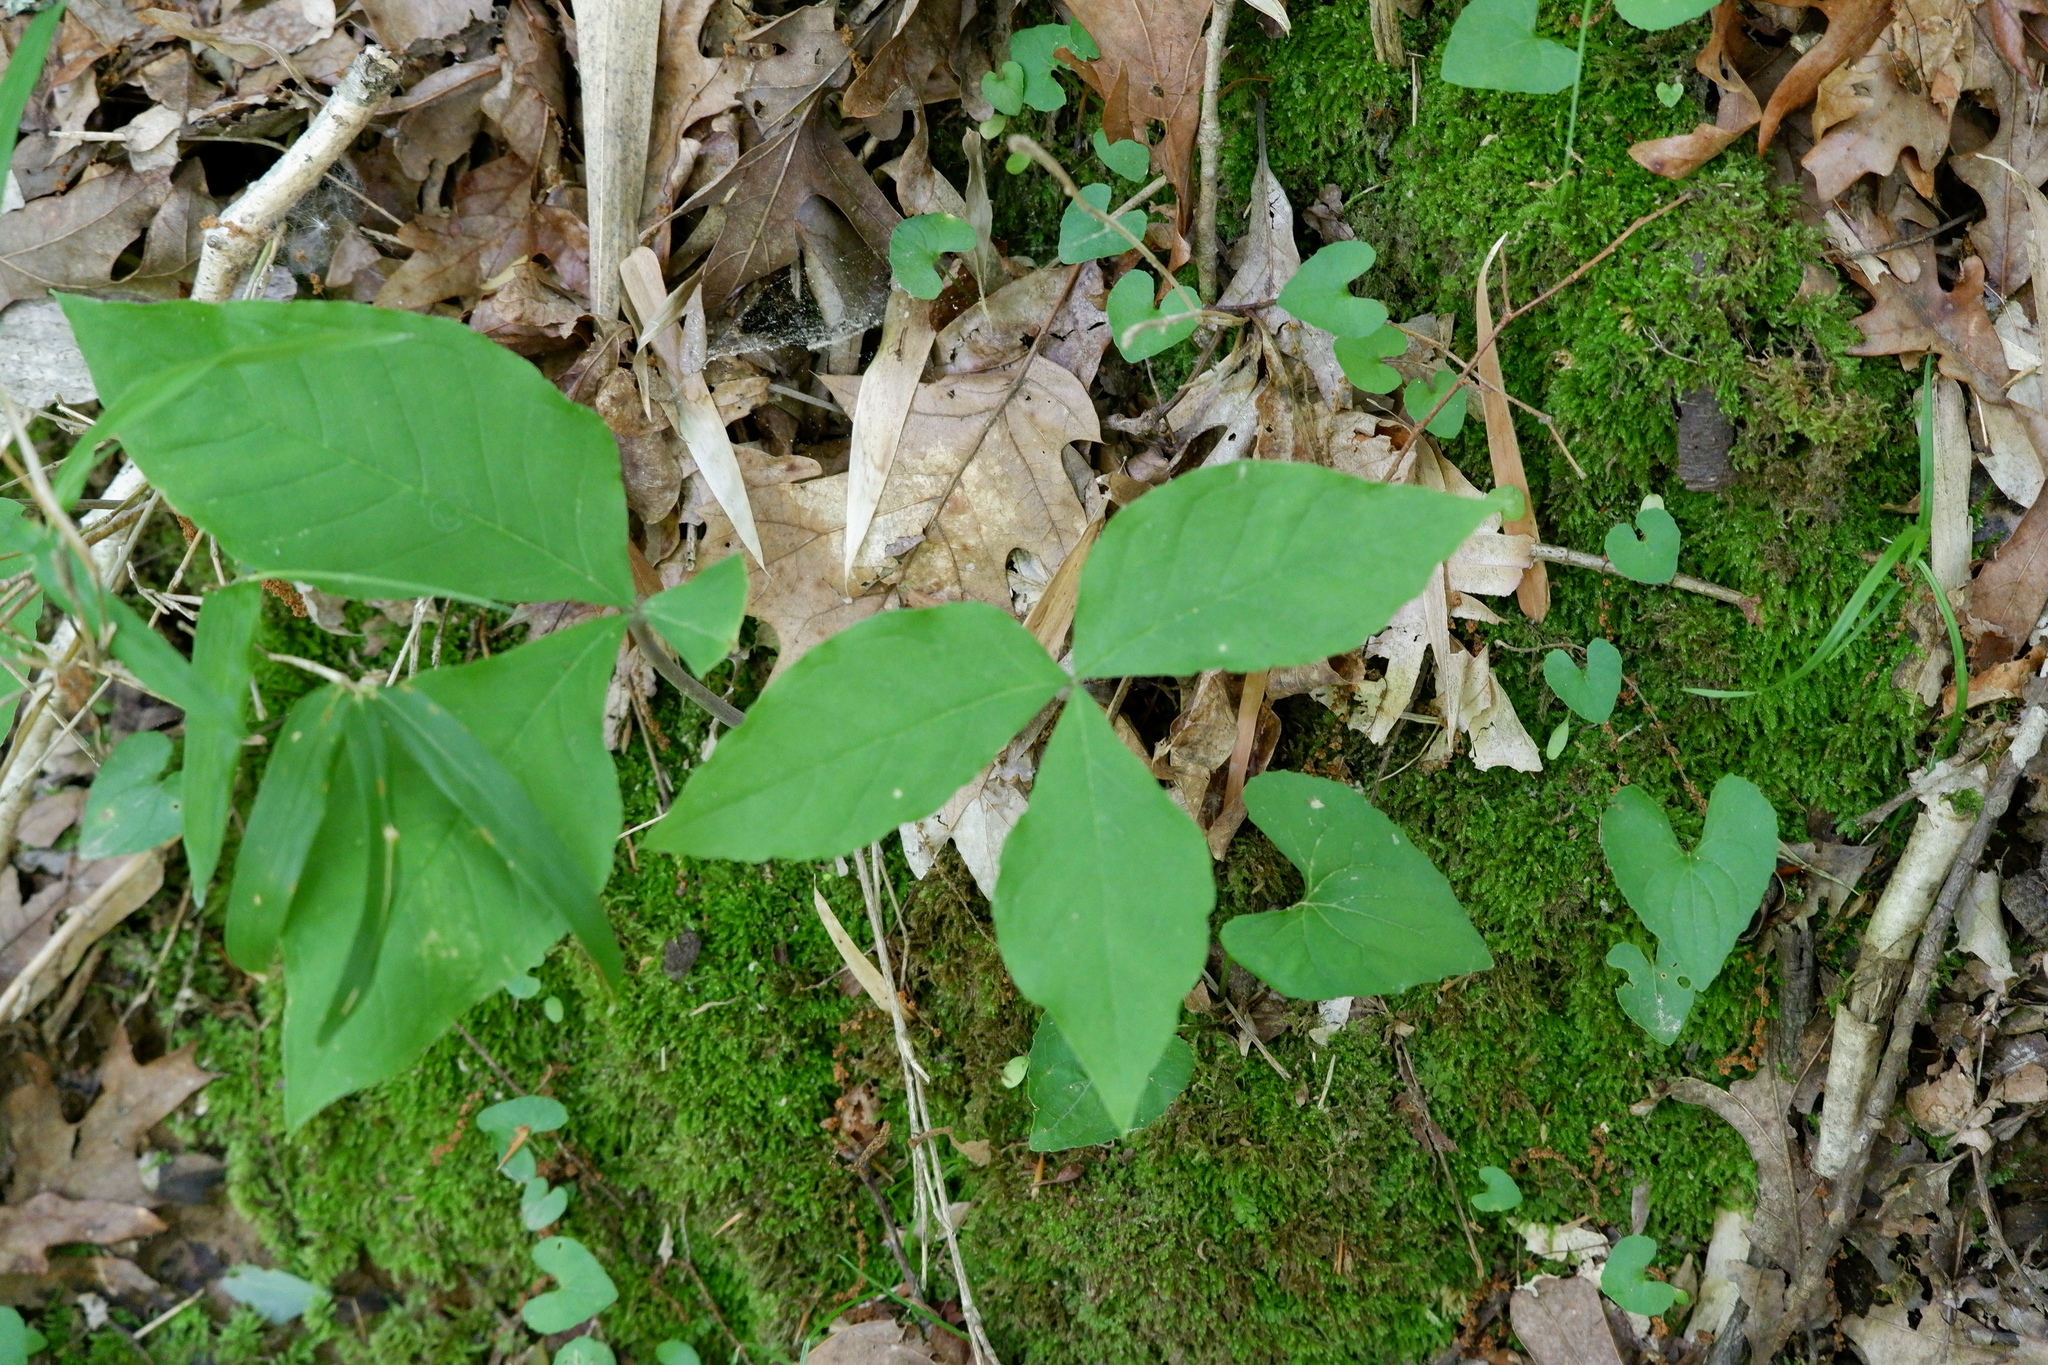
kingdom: Plantae
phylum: Tracheophyta
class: Liliopsida
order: Alismatales
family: Araceae
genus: Arisaema
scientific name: Arisaema triphyllum
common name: Jack-in-the-pulpit
